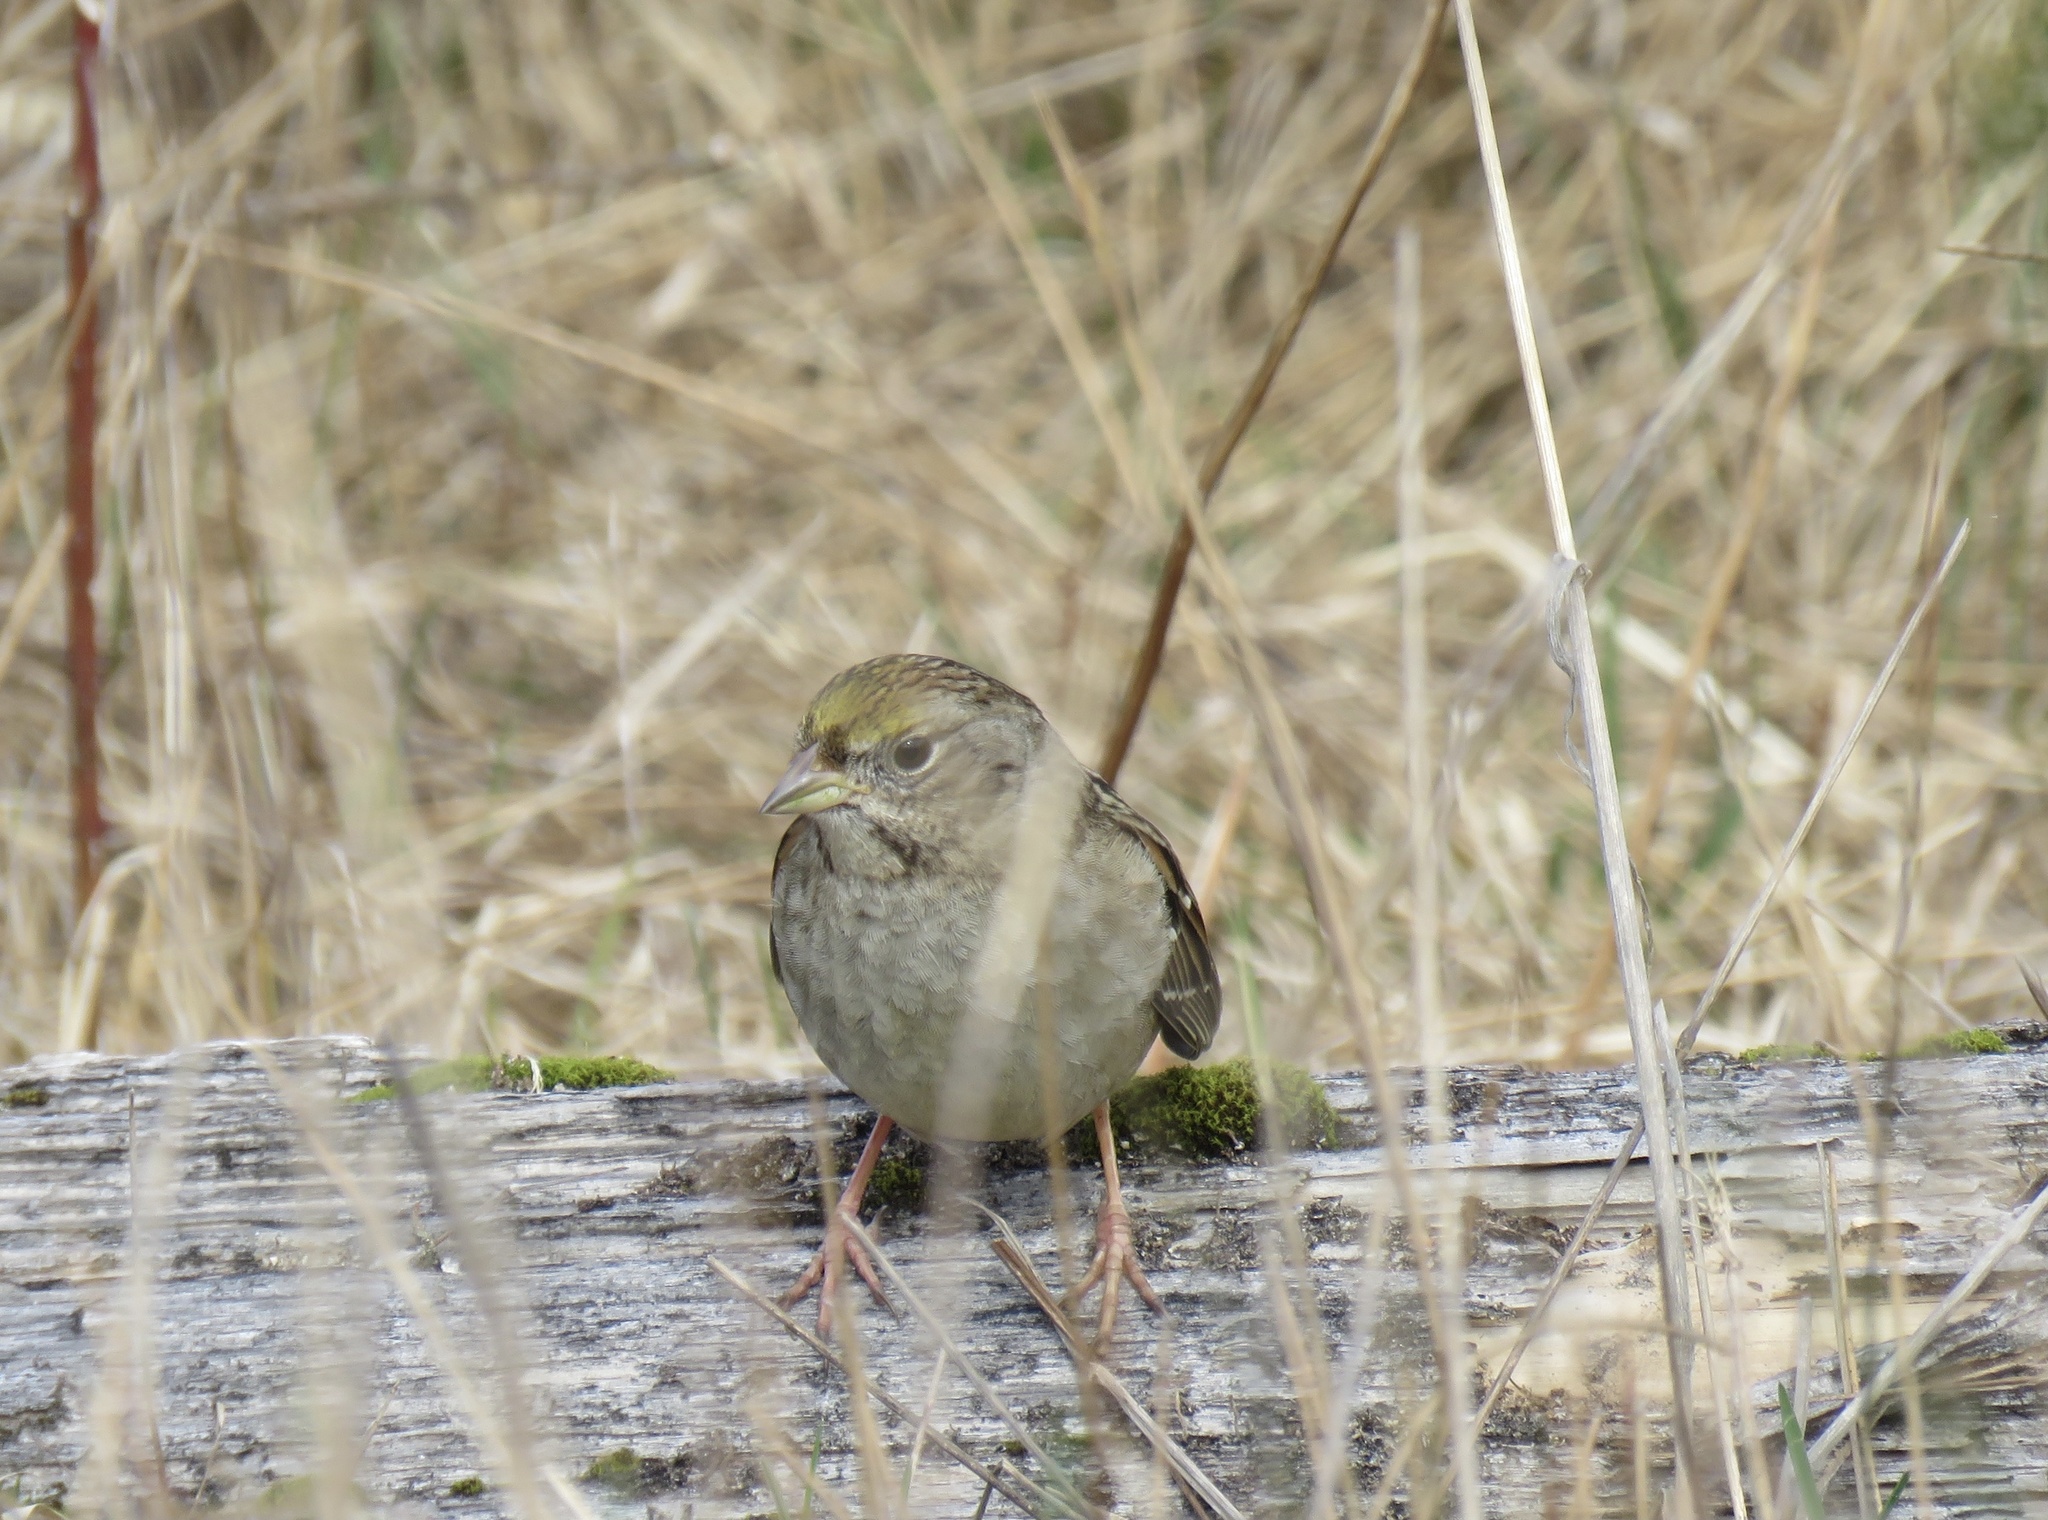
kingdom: Animalia
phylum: Chordata
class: Aves
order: Passeriformes
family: Passerellidae
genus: Zonotrichia
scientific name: Zonotrichia atricapilla
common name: Golden-crowned sparrow
